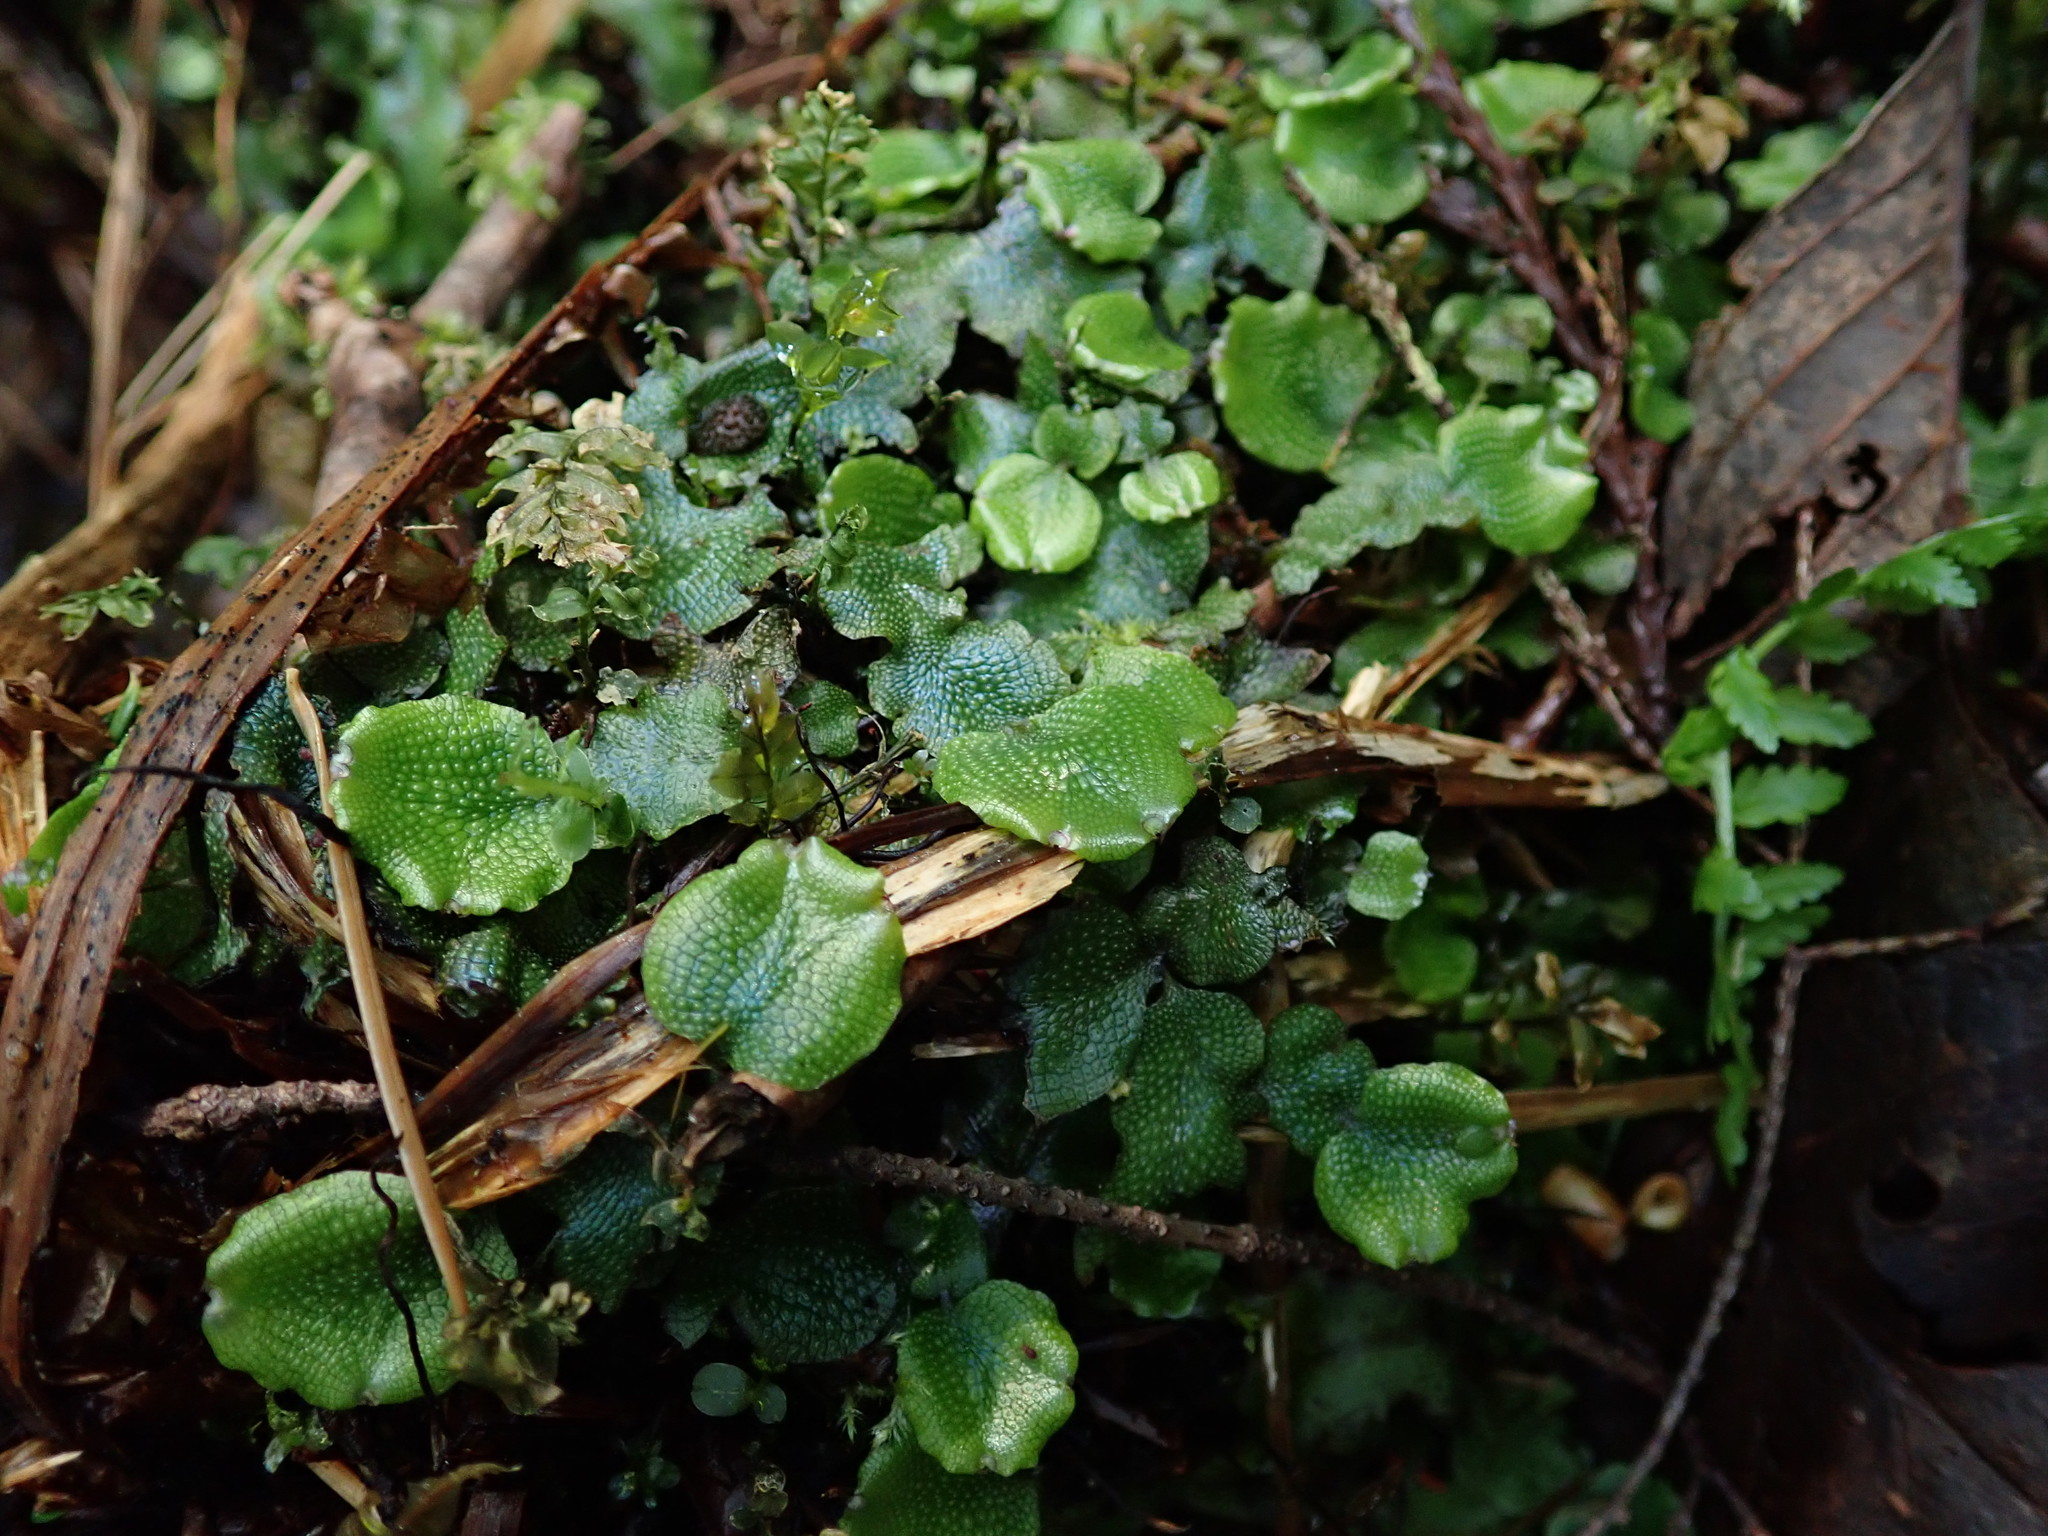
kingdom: Plantae
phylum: Marchantiophyta
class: Marchantiopsida
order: Marchantiales
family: Conocephalaceae
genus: Conocephalum
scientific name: Conocephalum salebrosum
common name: Cat-tongue liverwort
